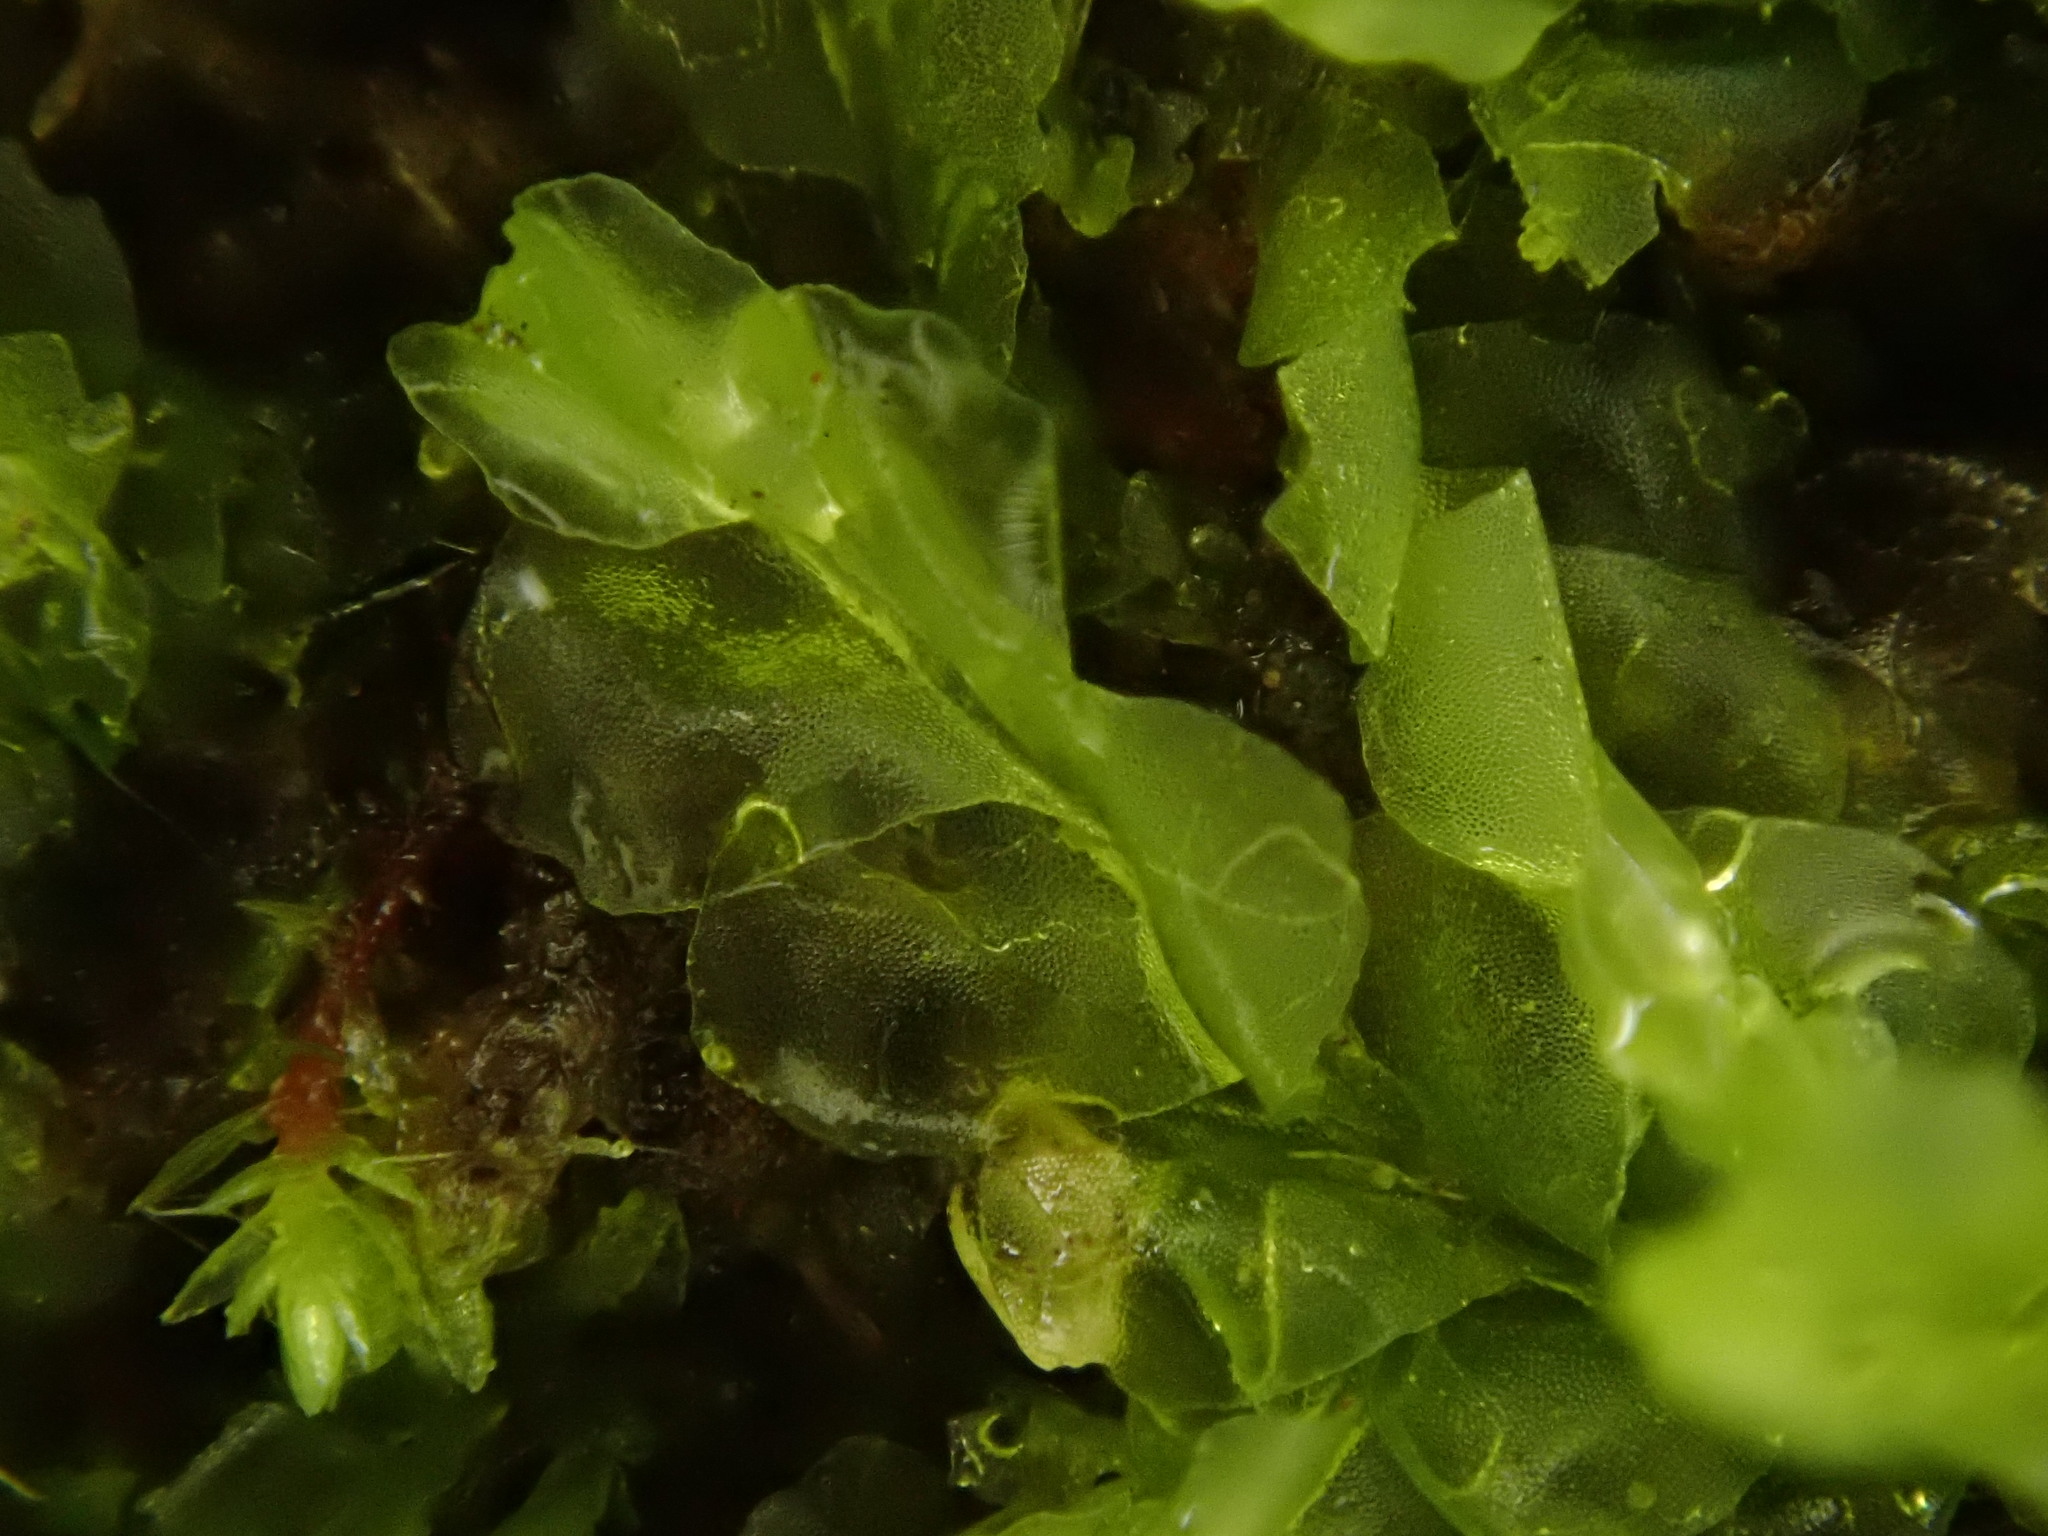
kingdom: Plantae
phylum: Marchantiophyta
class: Jungermanniopsida
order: Jungermanniales
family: Lophocoleaceae
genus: Lophocolea
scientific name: Lophocolea semiteres
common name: Southern crestwort
